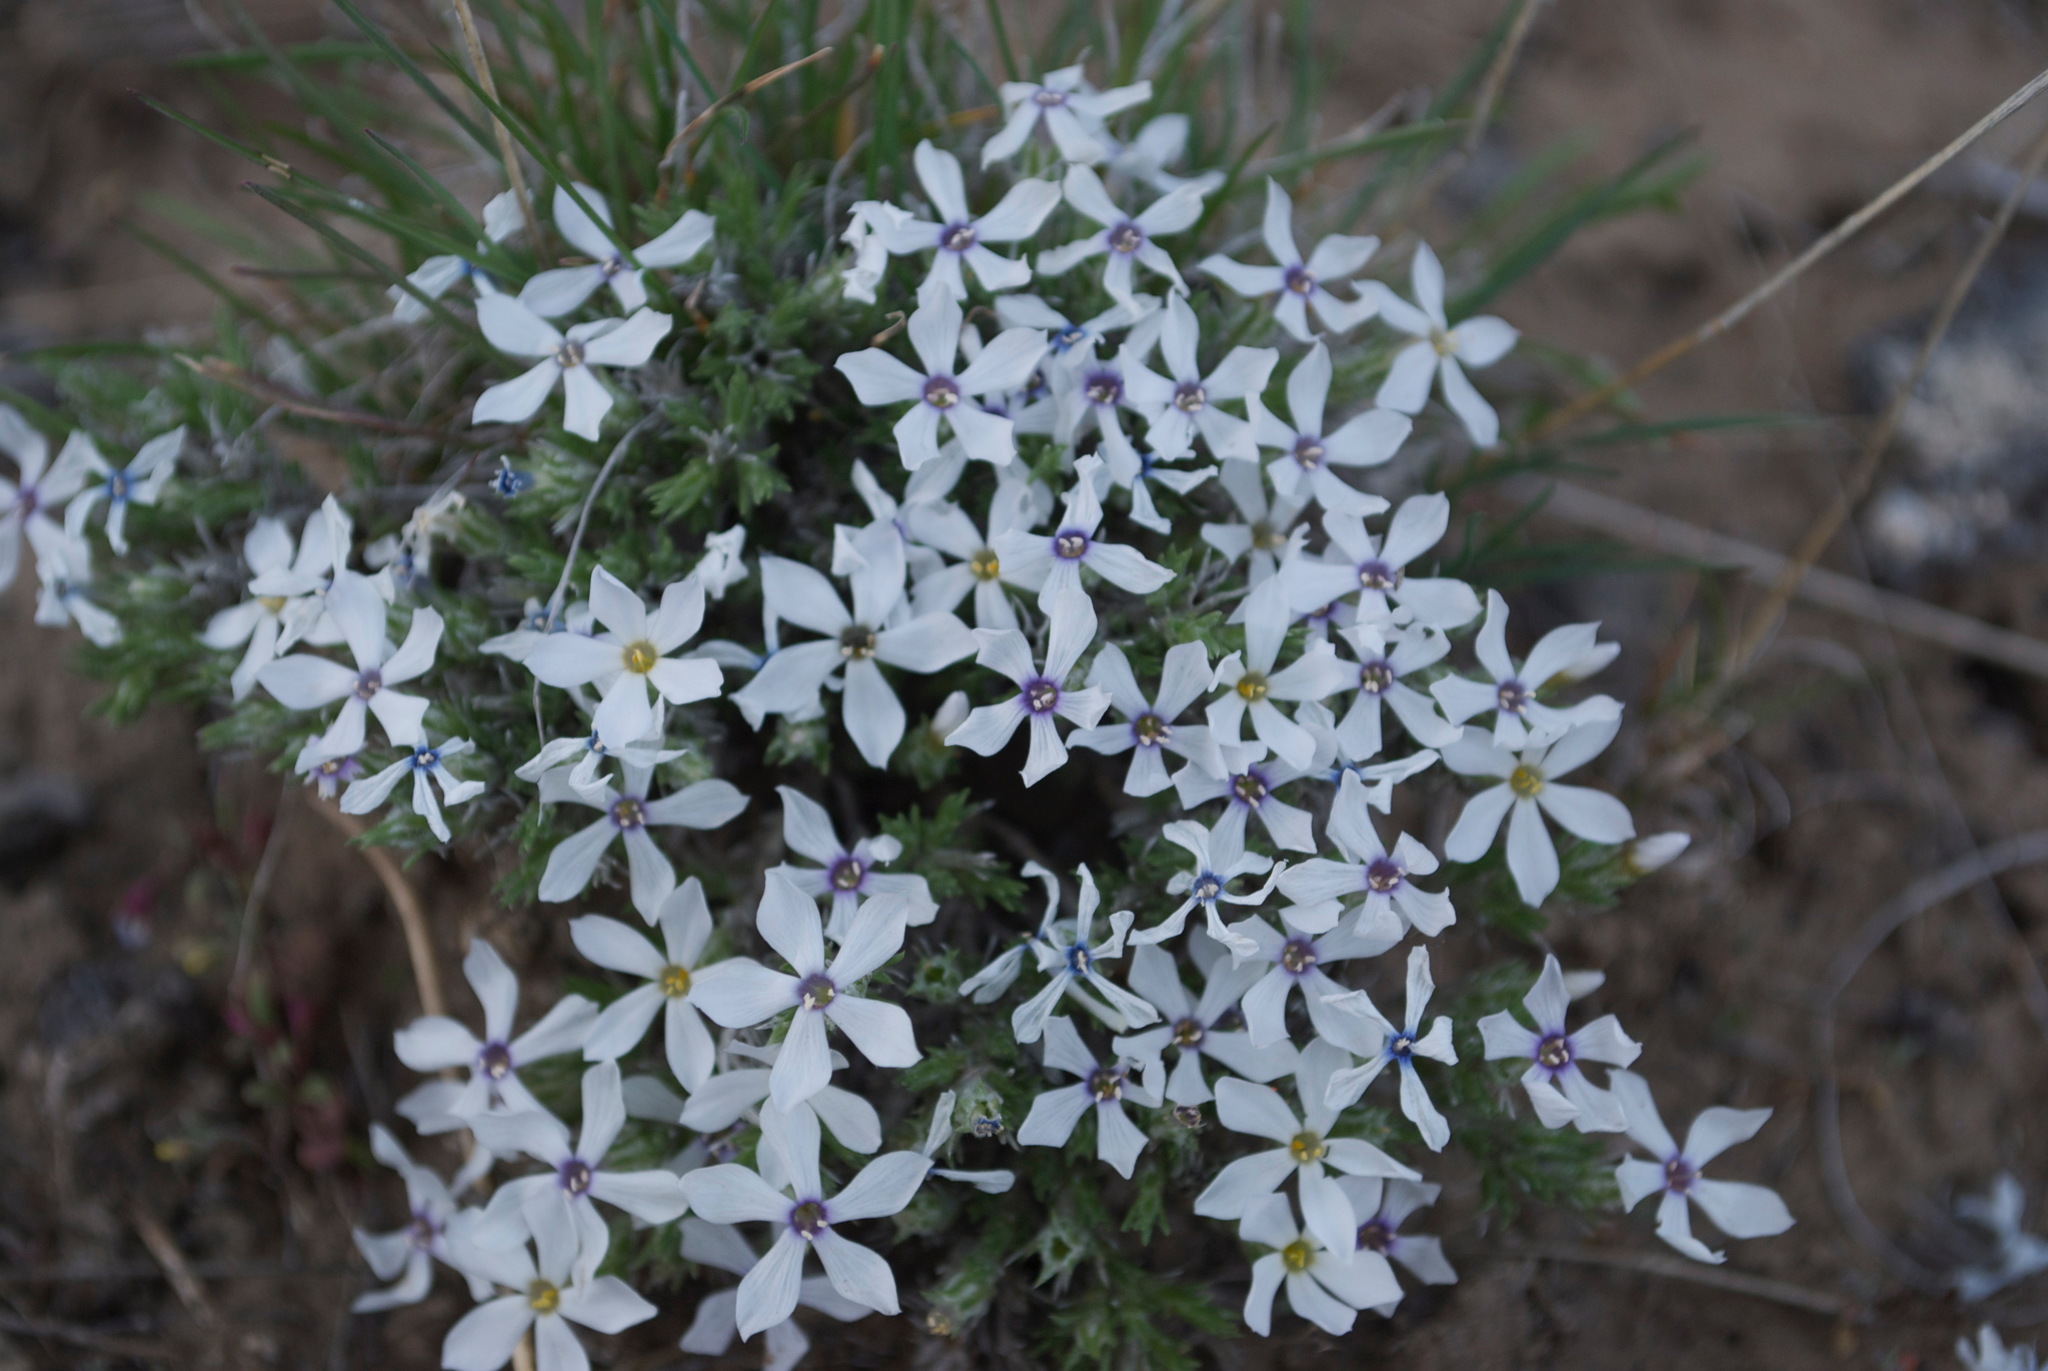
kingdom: Plantae
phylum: Tracheophyta
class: Magnoliopsida
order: Ericales
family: Polemoniaceae
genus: Phlox
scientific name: Phlox hoodii
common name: Moss phlox
